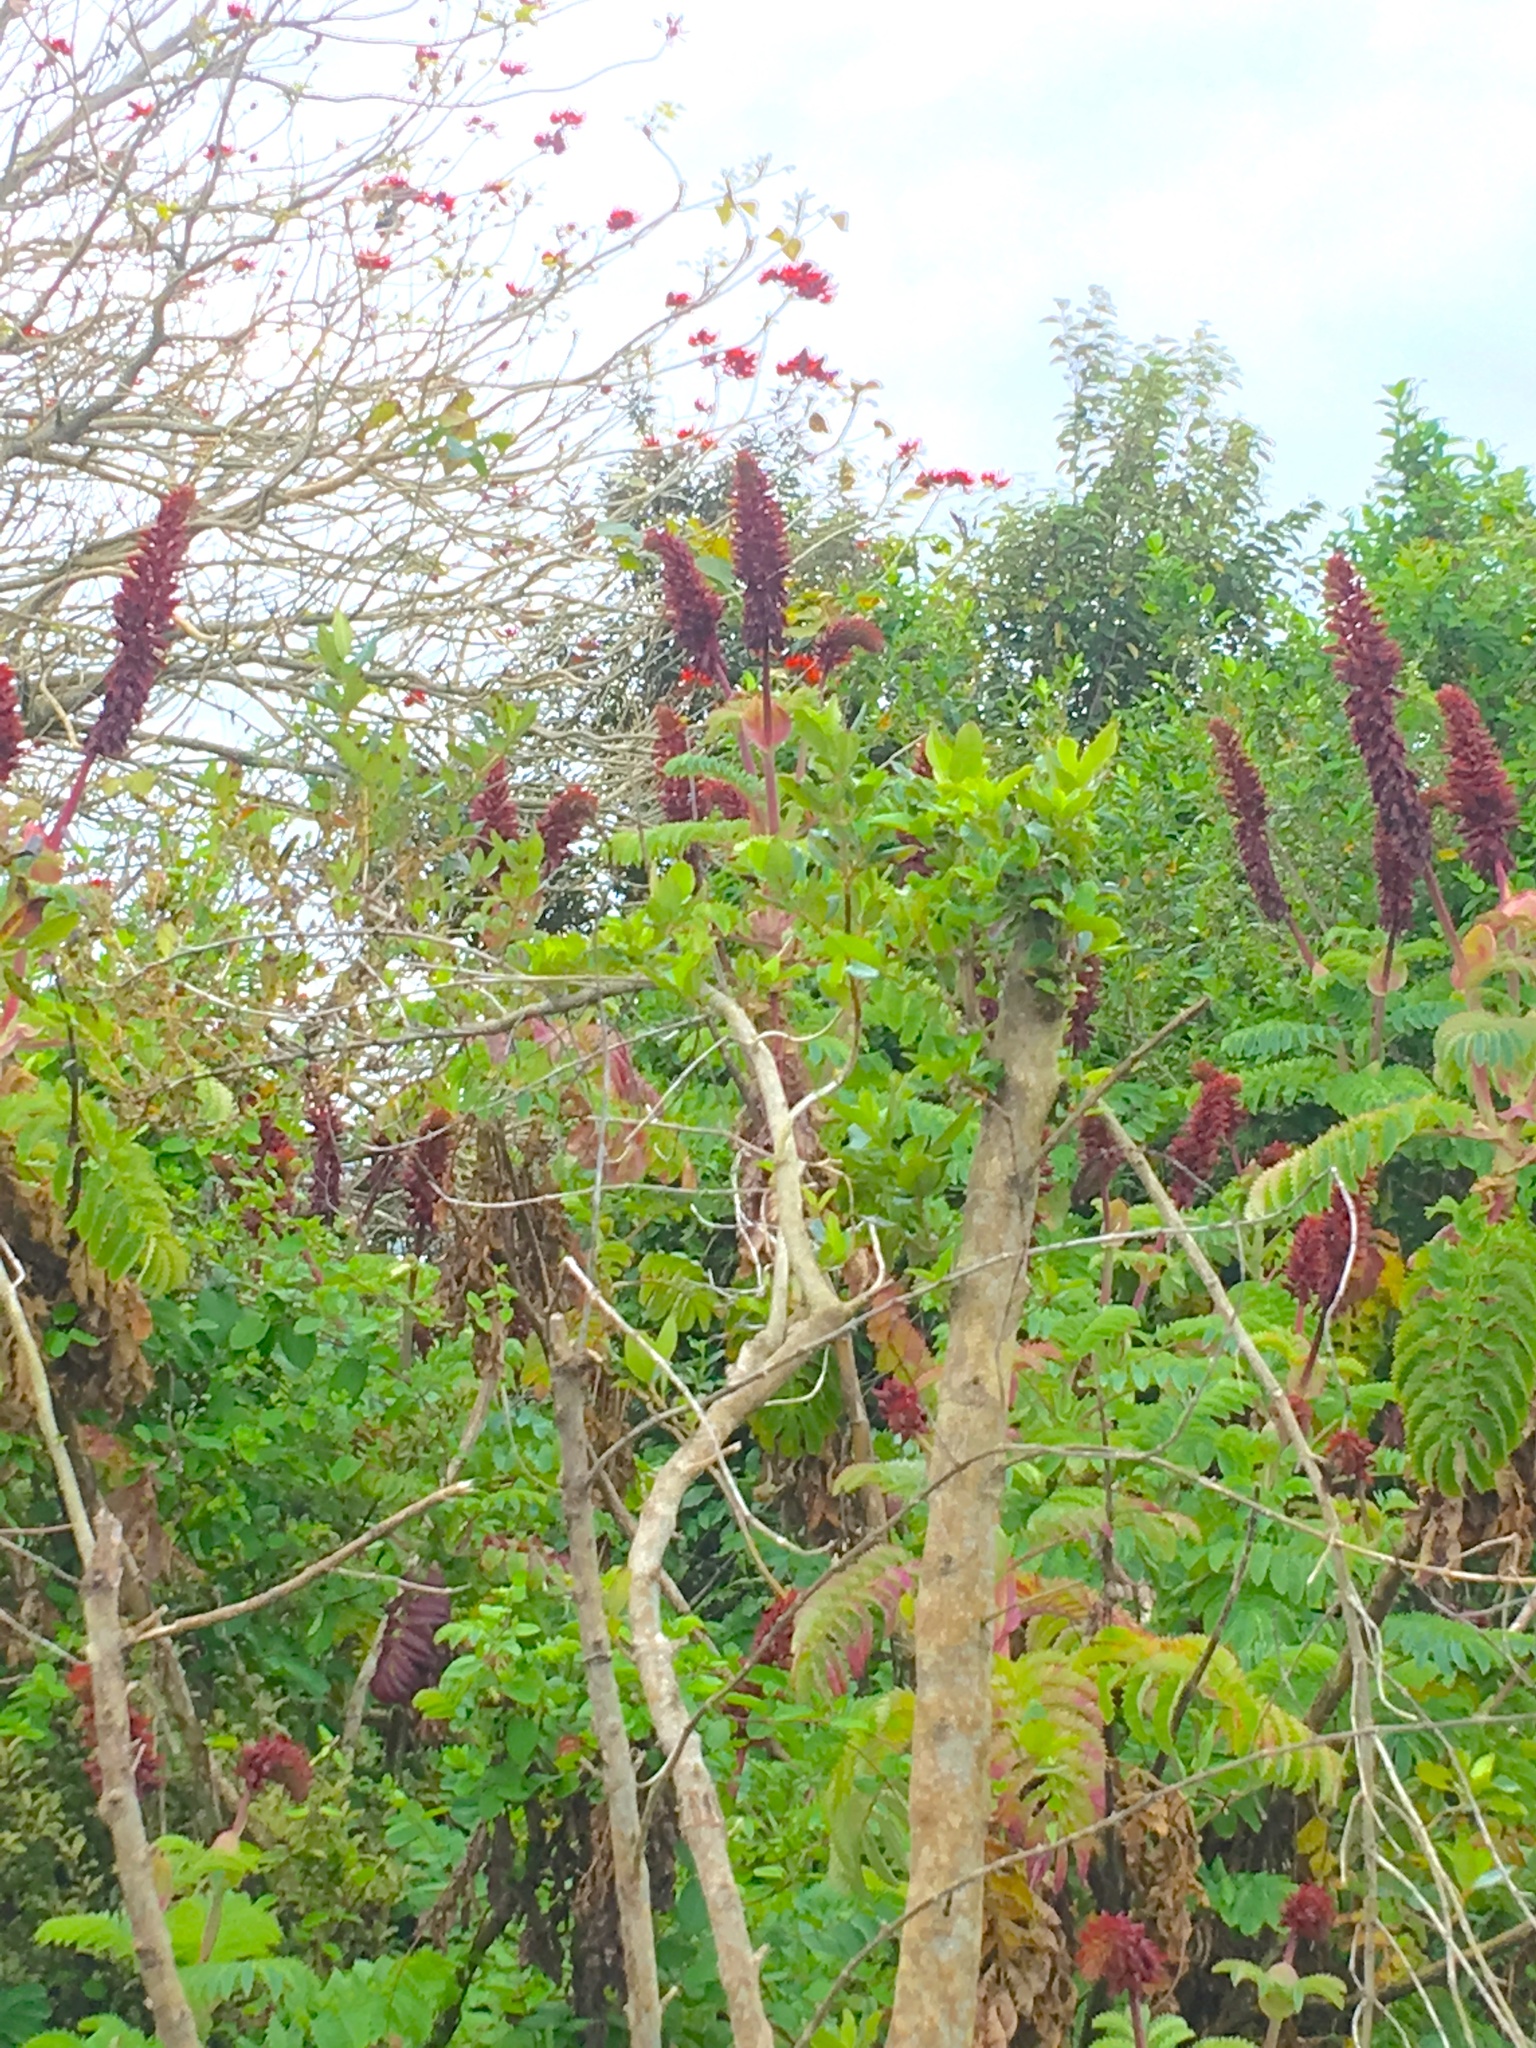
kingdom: Plantae
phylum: Tracheophyta
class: Magnoliopsida
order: Geraniales
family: Melianthaceae
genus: Melianthus
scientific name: Melianthus major
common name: Honey-flower
